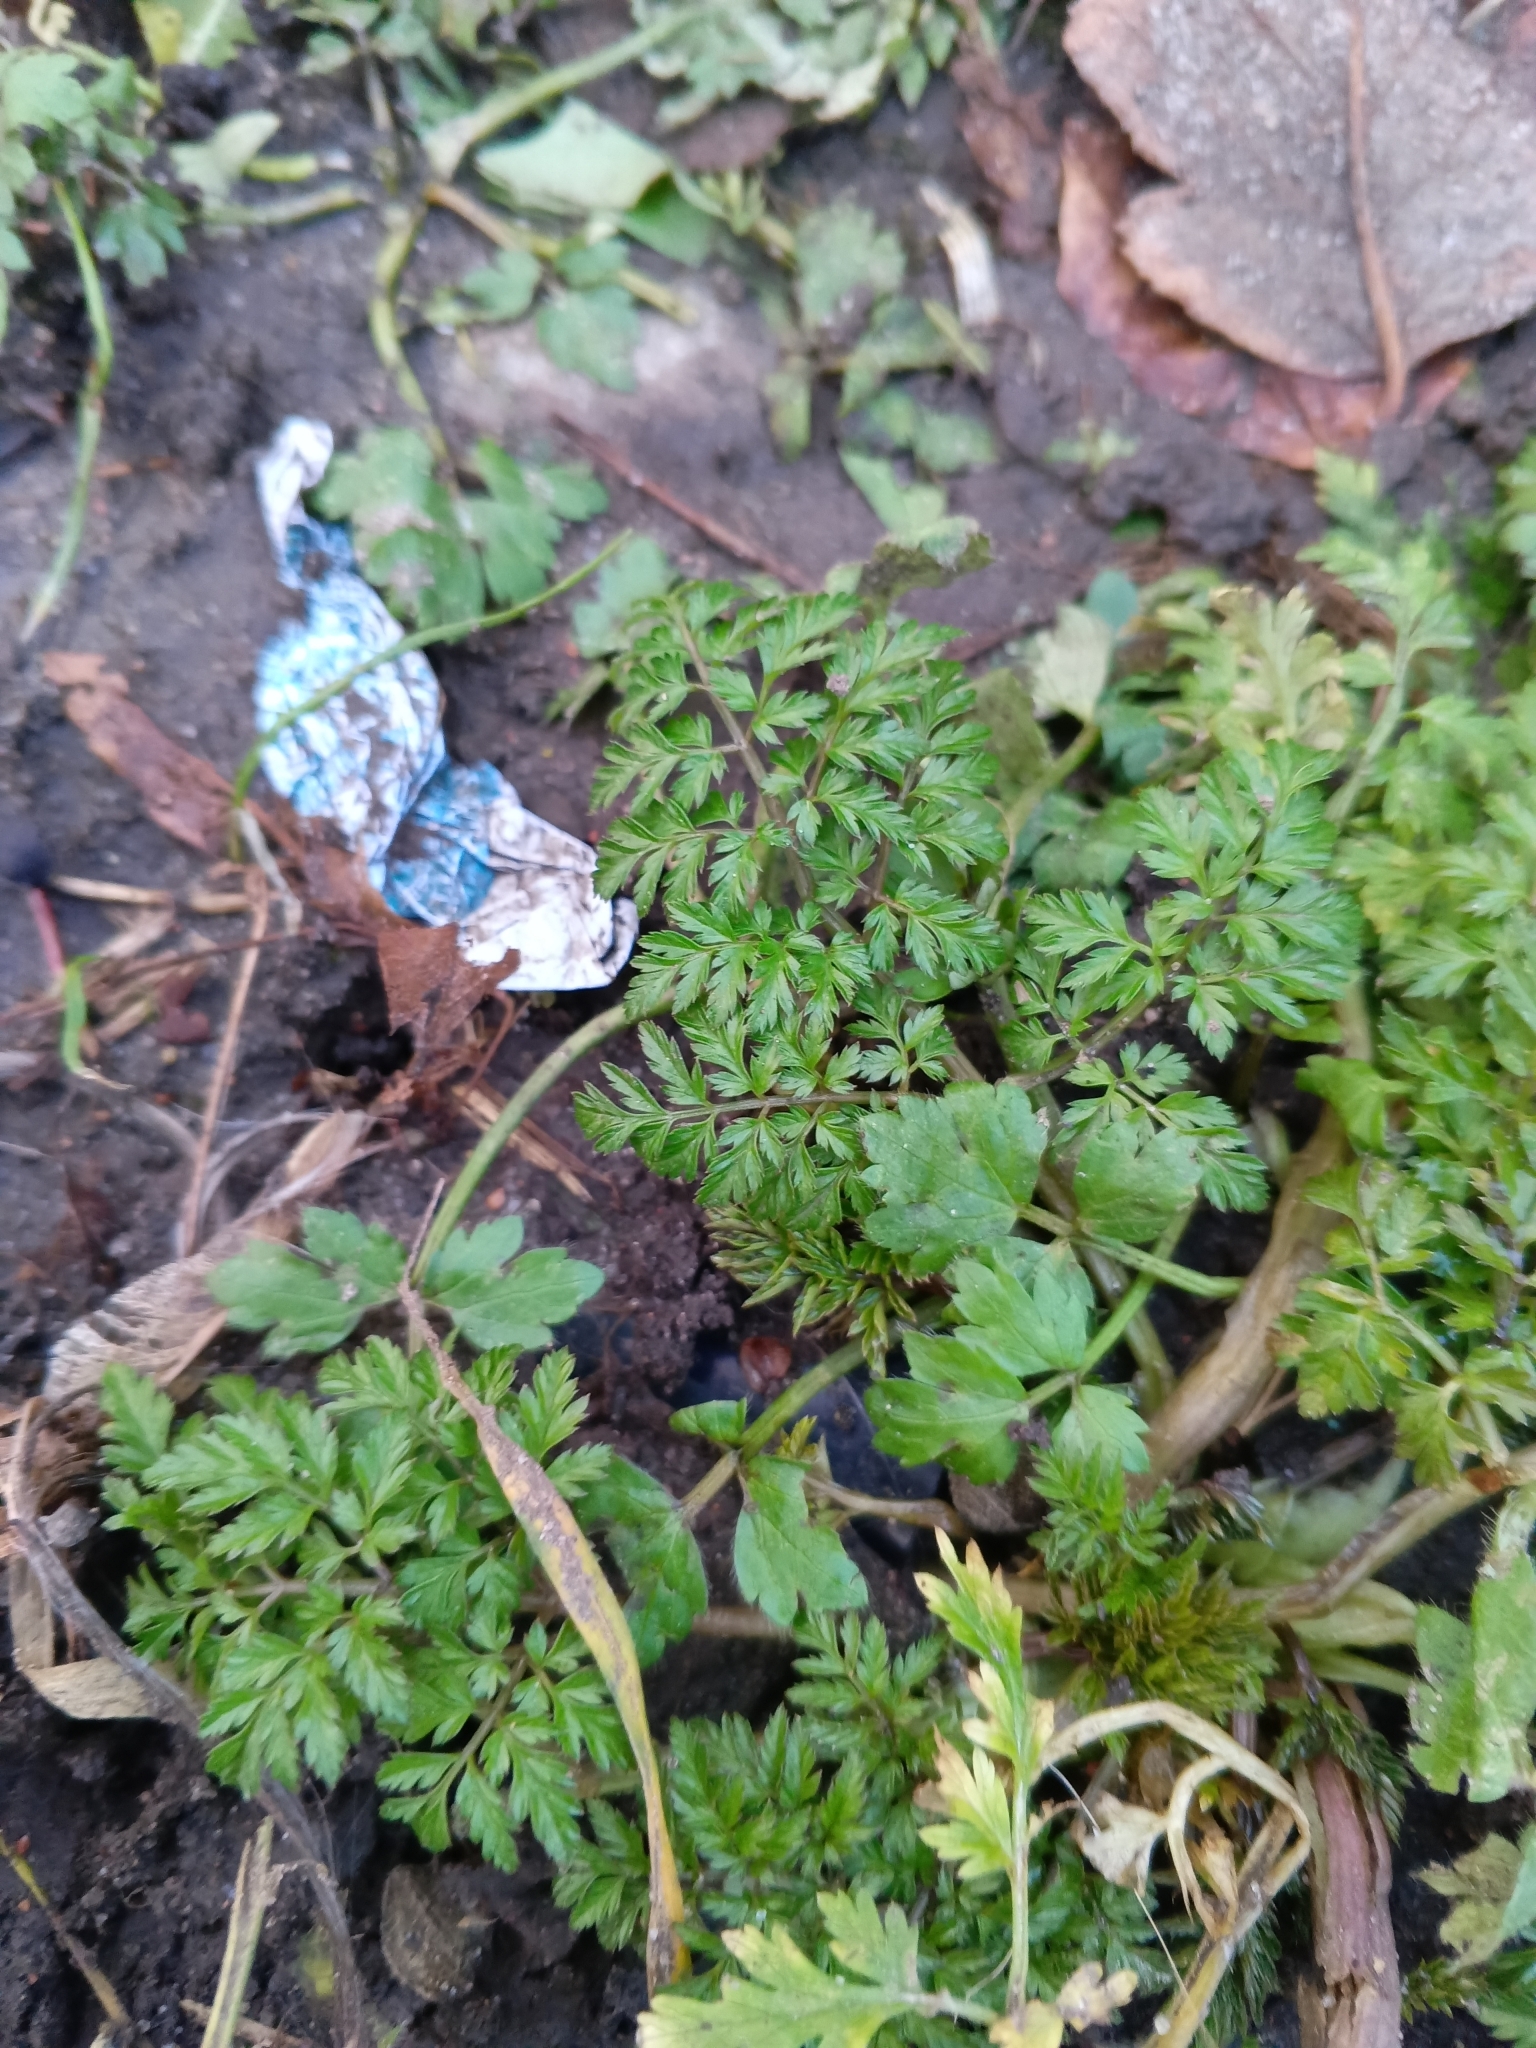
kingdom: Plantae
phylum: Tracheophyta
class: Magnoliopsida
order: Apiales
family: Apiaceae
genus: Anthriscus
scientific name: Anthriscus sylvestris
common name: Cow parsley
